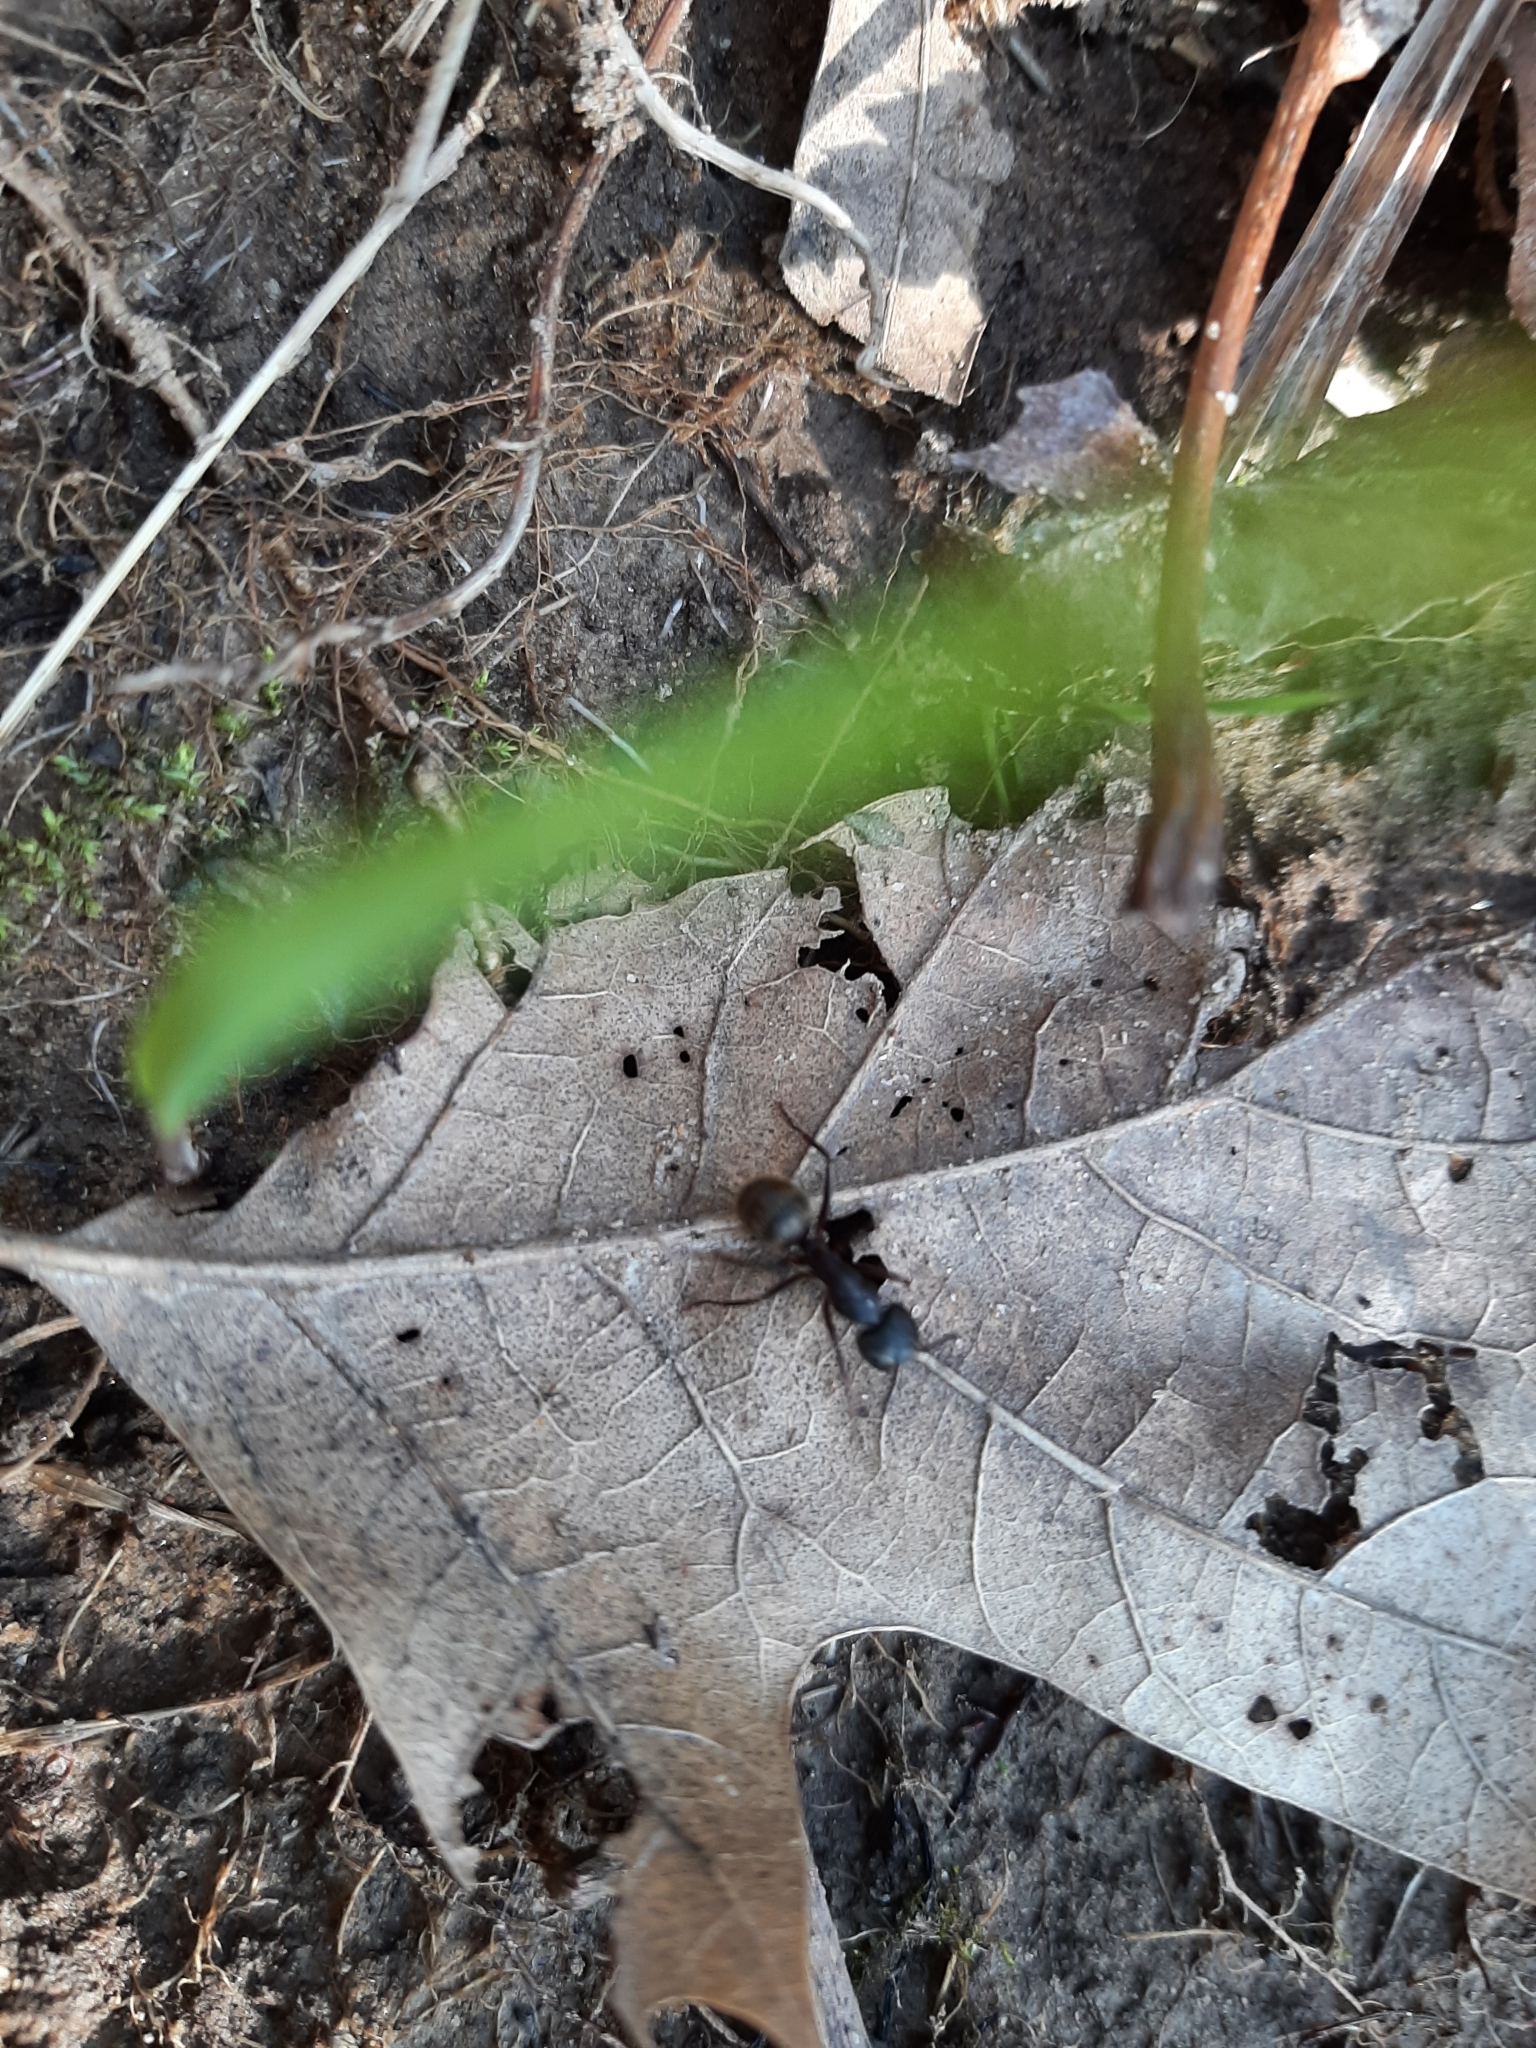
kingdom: Animalia
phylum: Arthropoda
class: Insecta
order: Hymenoptera
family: Formicidae
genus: Camponotus
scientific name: Camponotus pennsylvanicus
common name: Black carpenter ant
